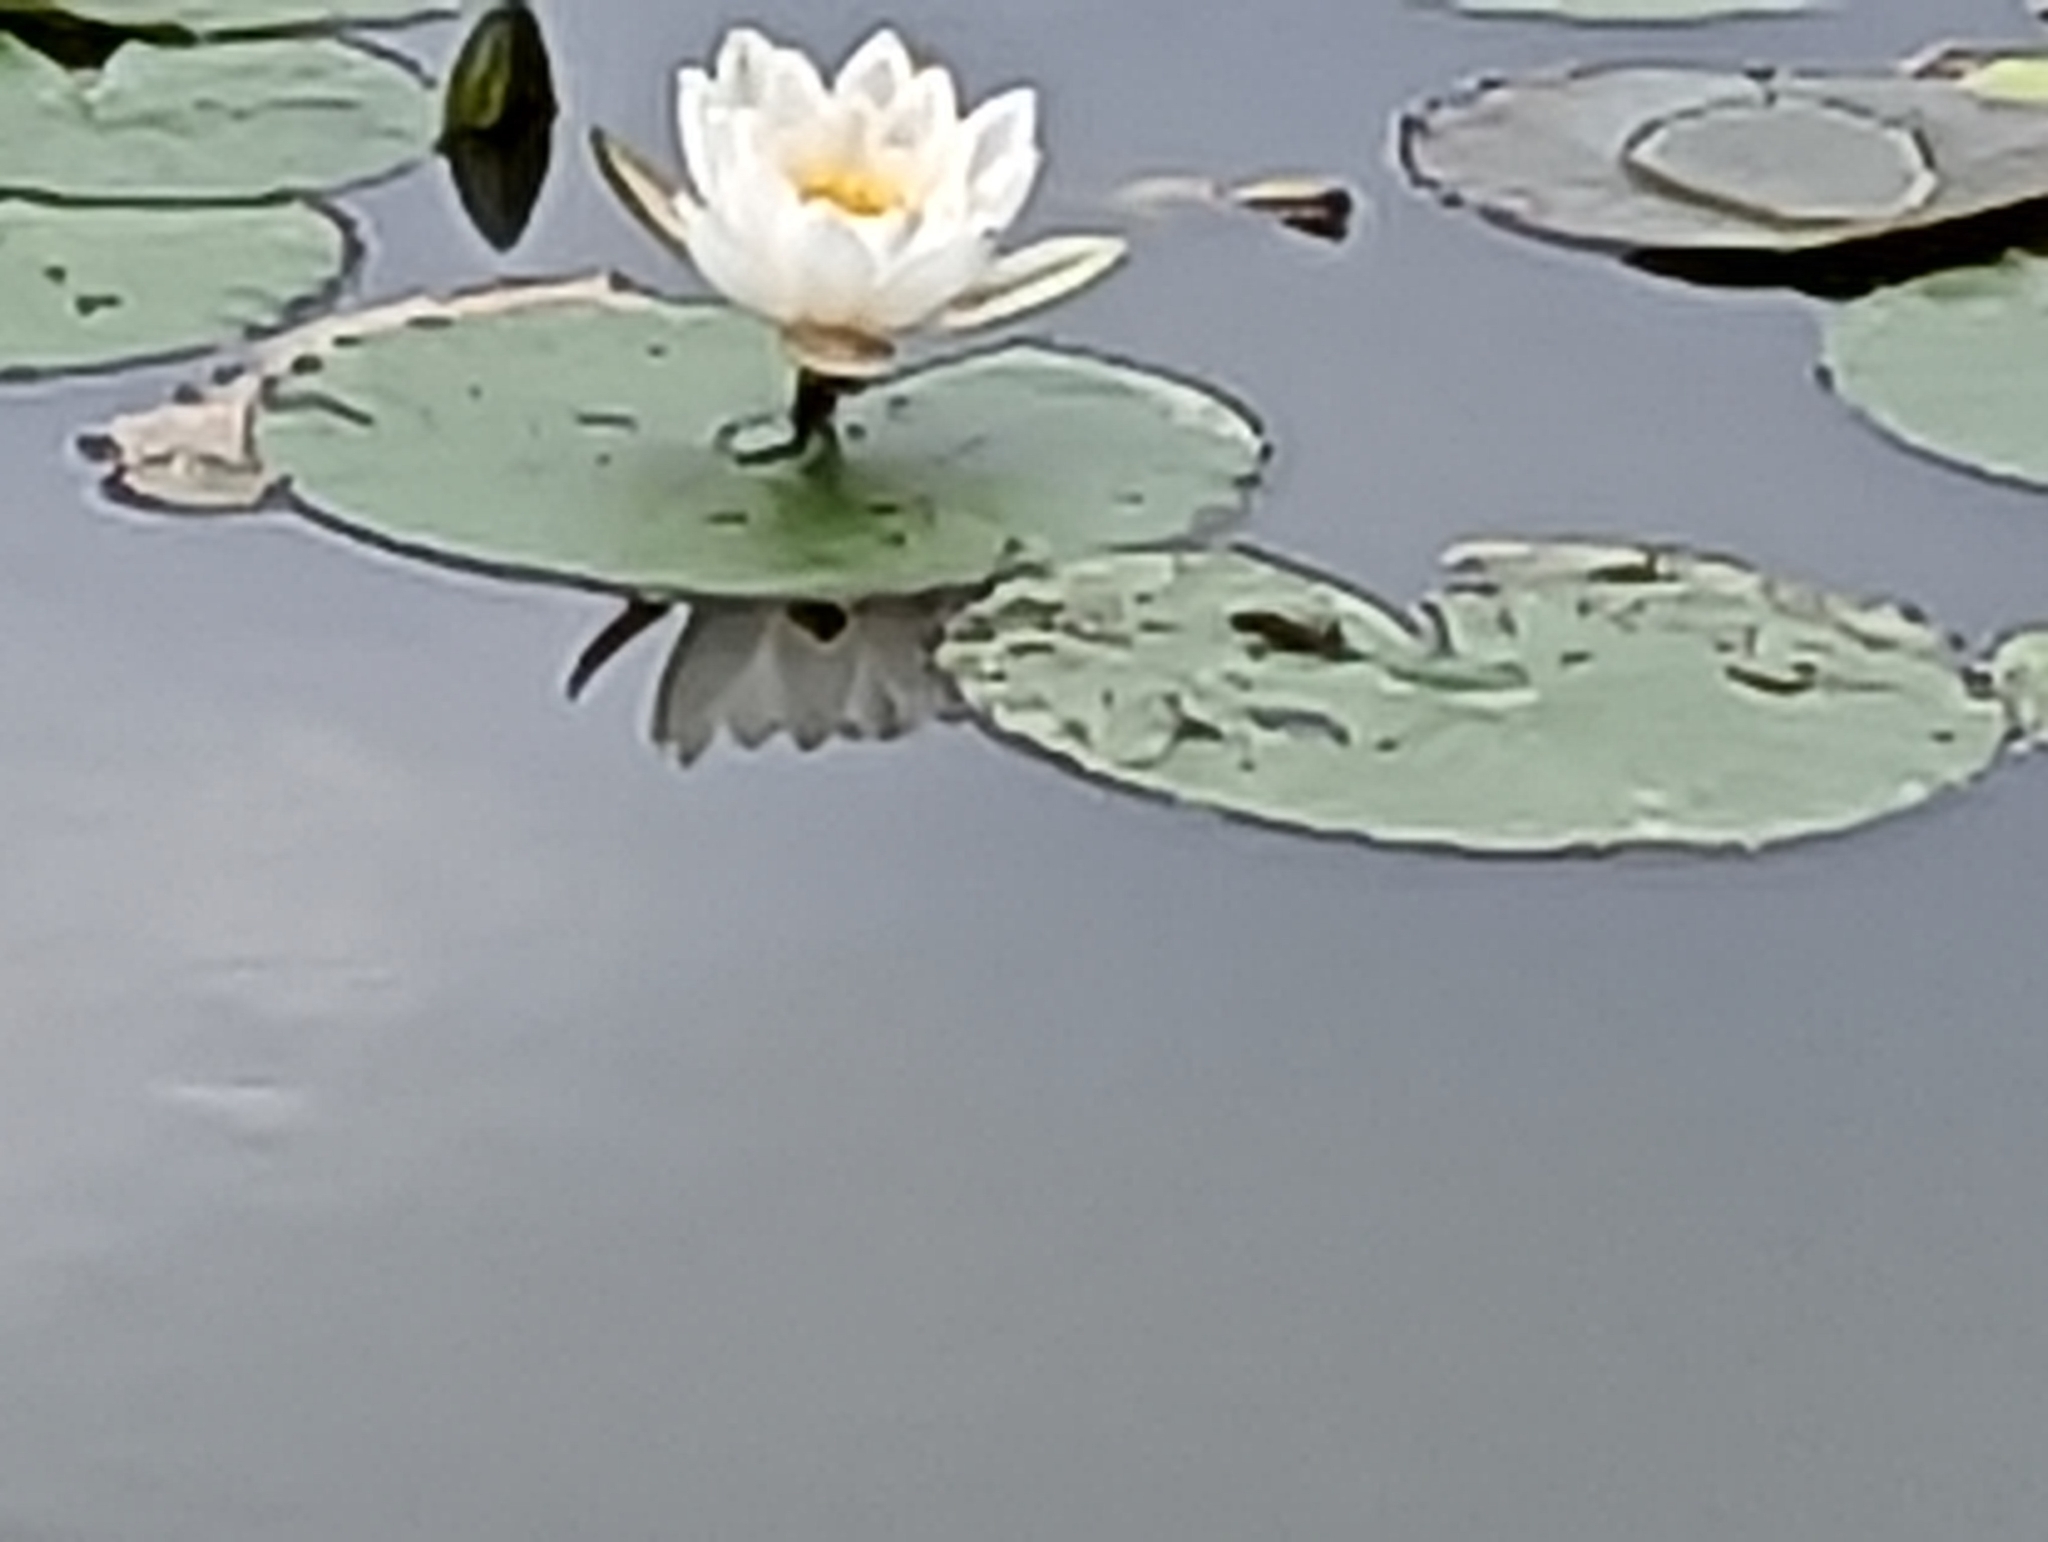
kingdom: Plantae
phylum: Tracheophyta
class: Magnoliopsida
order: Nymphaeales
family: Nymphaeaceae
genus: Nymphaea
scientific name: Nymphaea alba
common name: White water-lily
